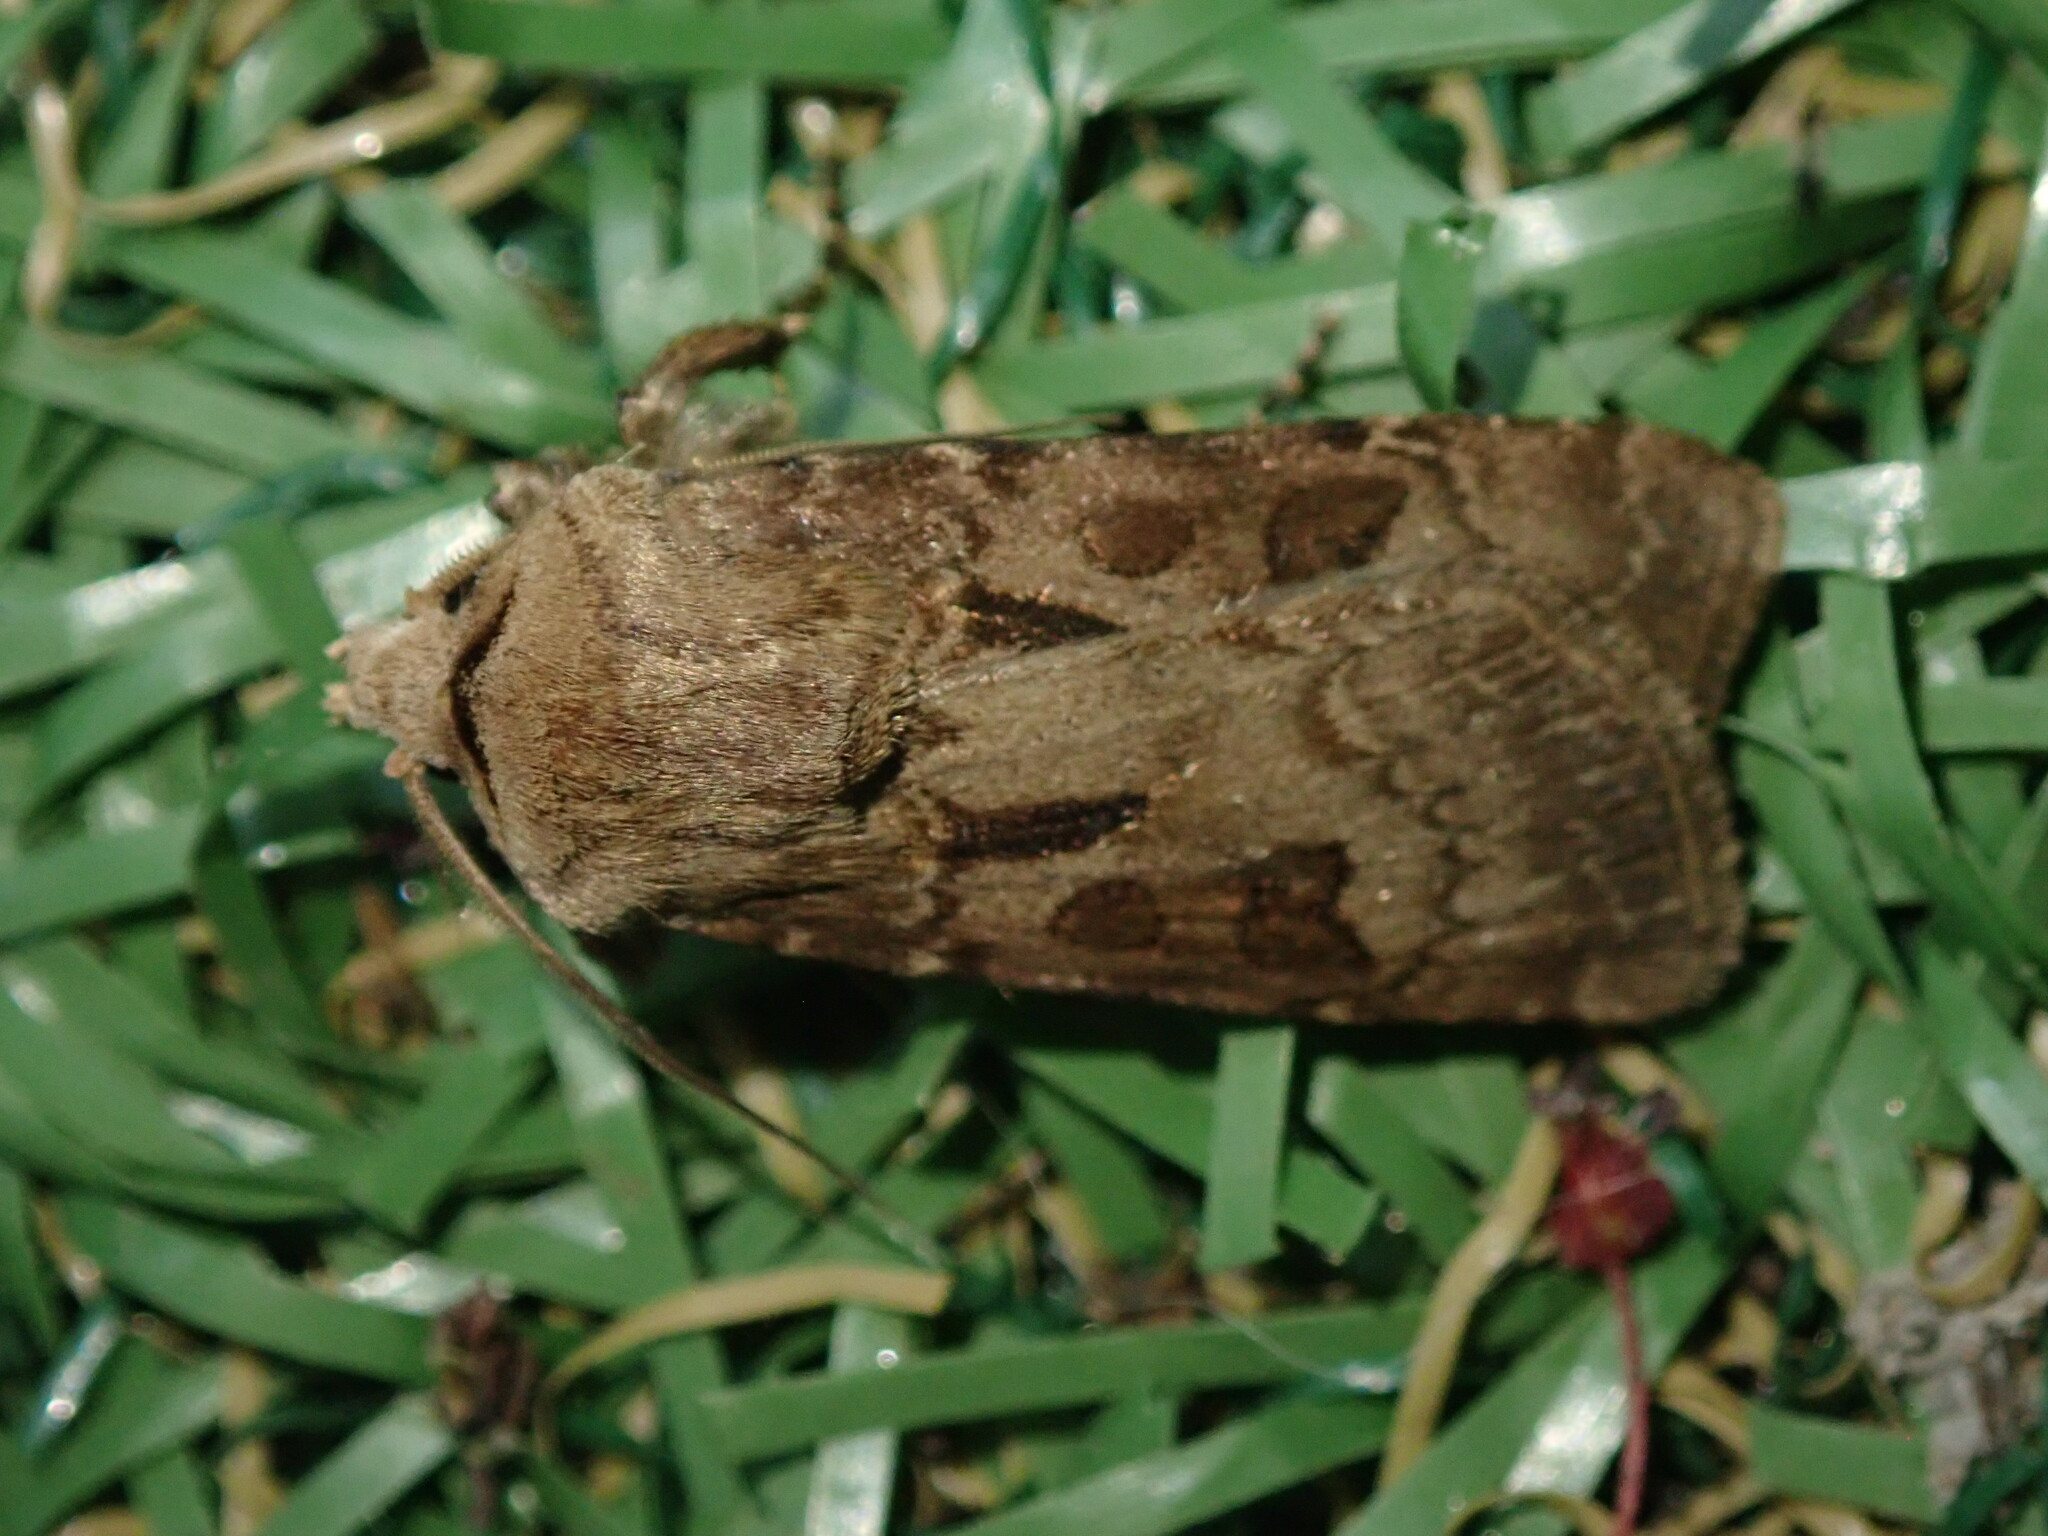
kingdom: Animalia
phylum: Arthropoda
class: Insecta
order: Lepidoptera
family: Noctuidae
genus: Agrotis
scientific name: Agrotis exclamationis
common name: Heart and dart
